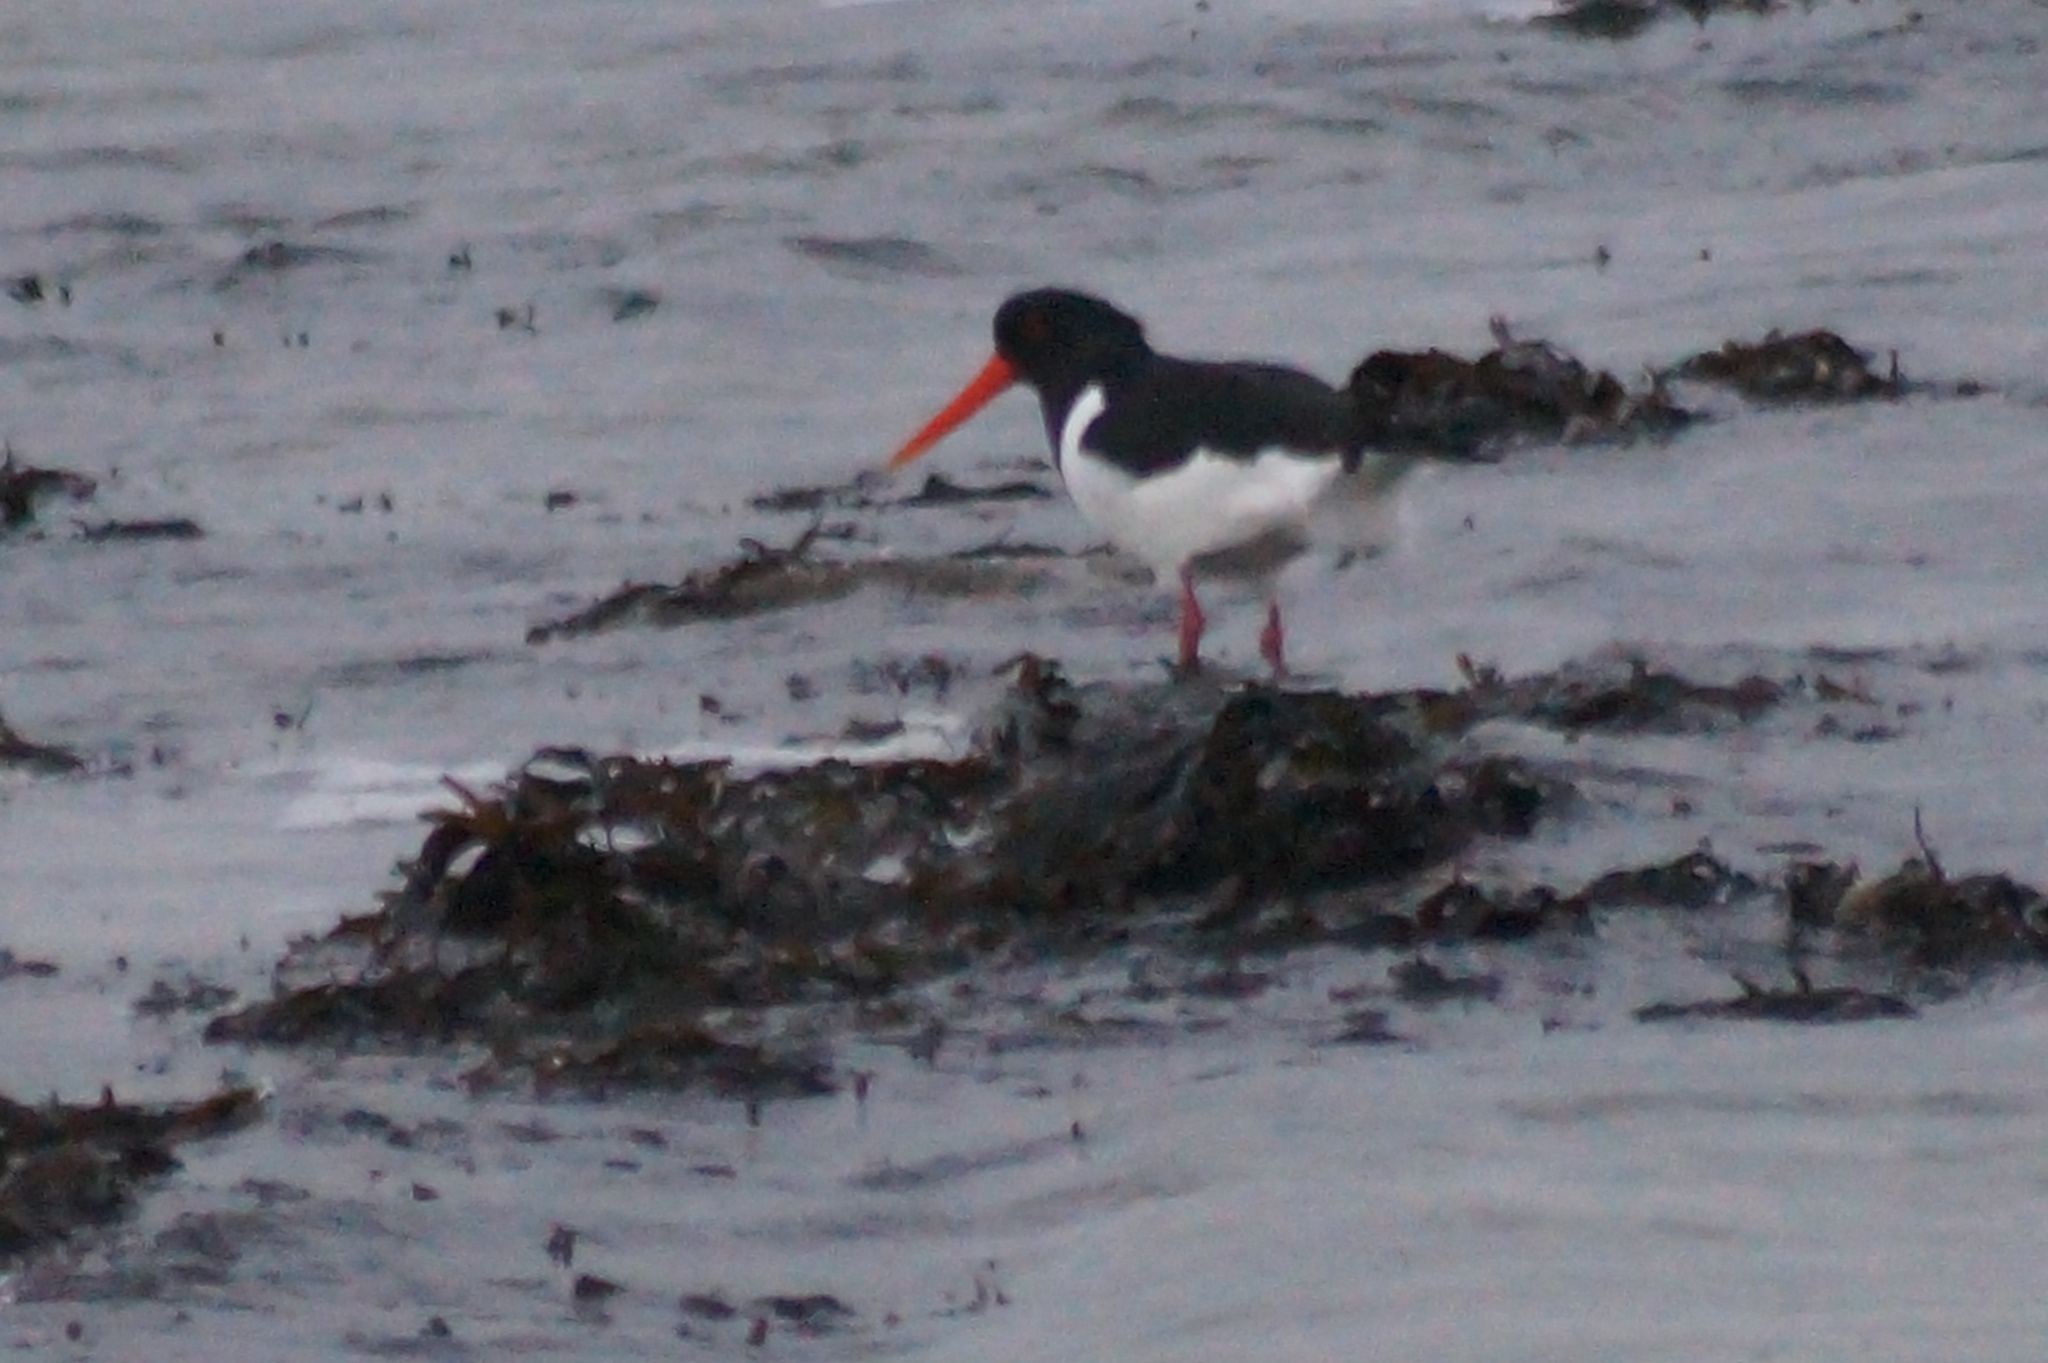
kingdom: Animalia
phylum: Chordata
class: Aves
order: Charadriiformes
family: Haematopodidae
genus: Haematopus
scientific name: Haematopus ostralegus
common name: Eurasian oystercatcher
